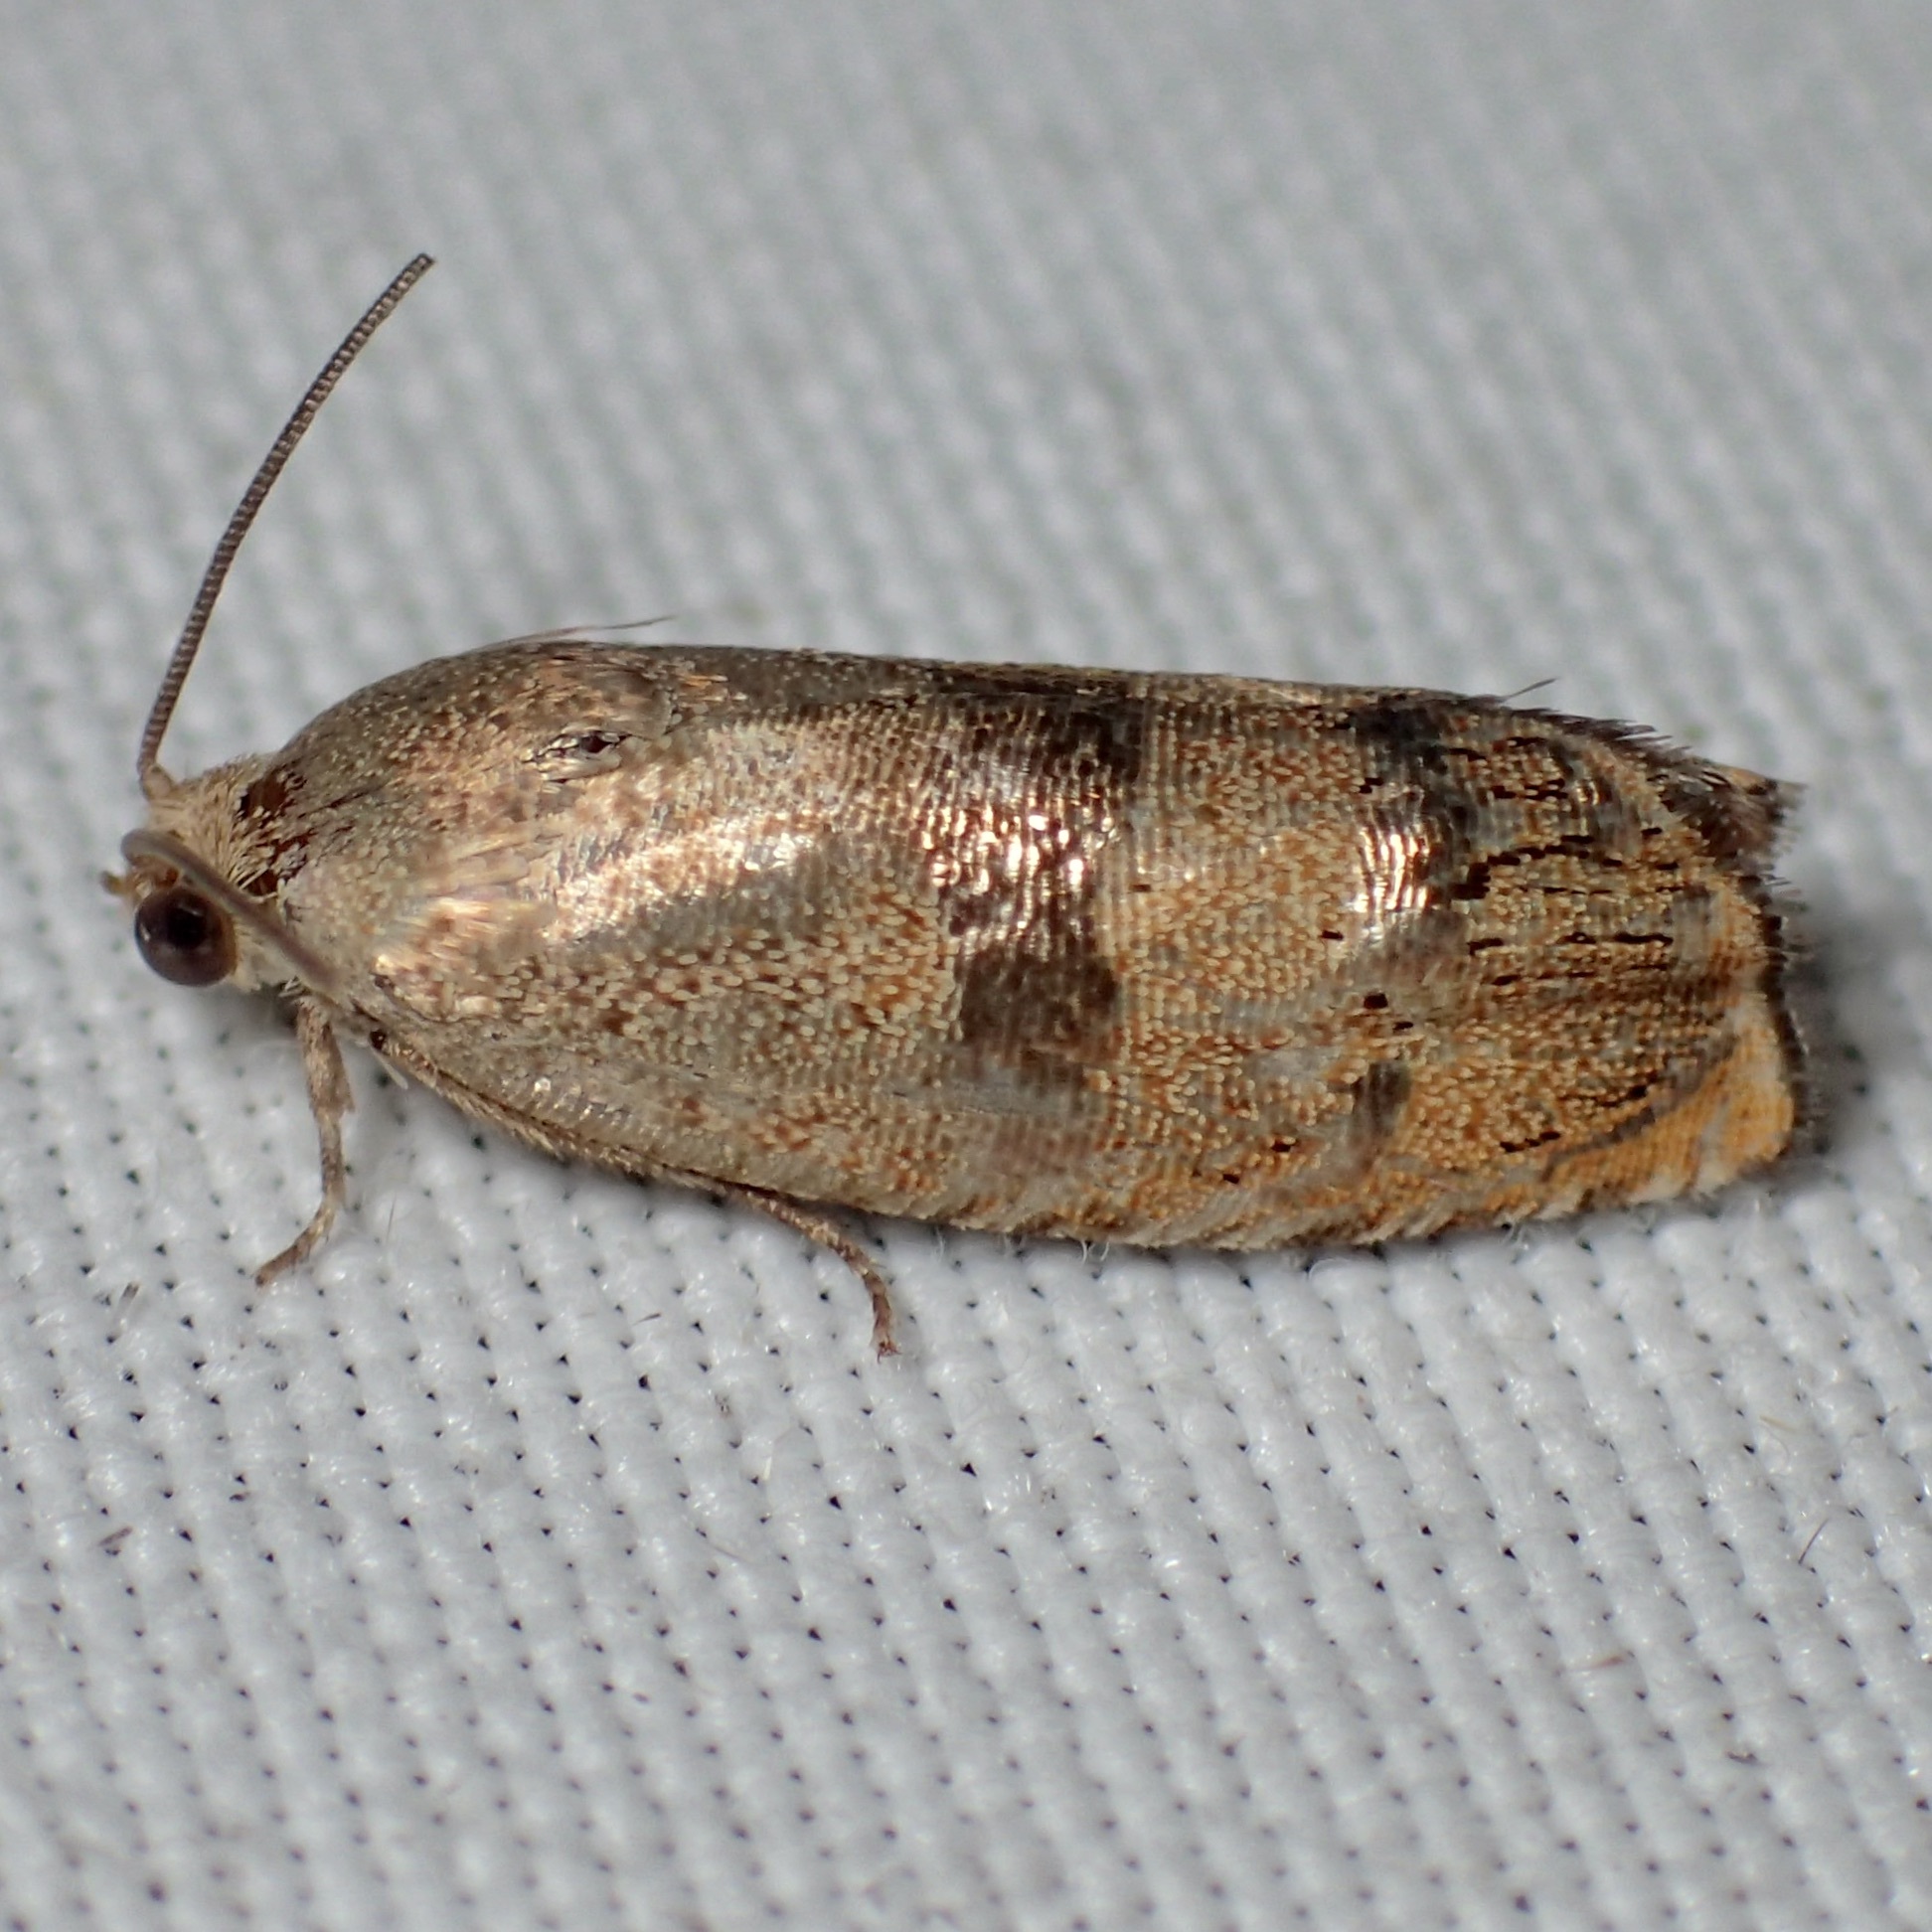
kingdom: Animalia
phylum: Arthropoda
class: Insecta
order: Lepidoptera
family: Tortricidae
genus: Cydia
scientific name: Cydia latiferreana
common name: Filbertworm moth
